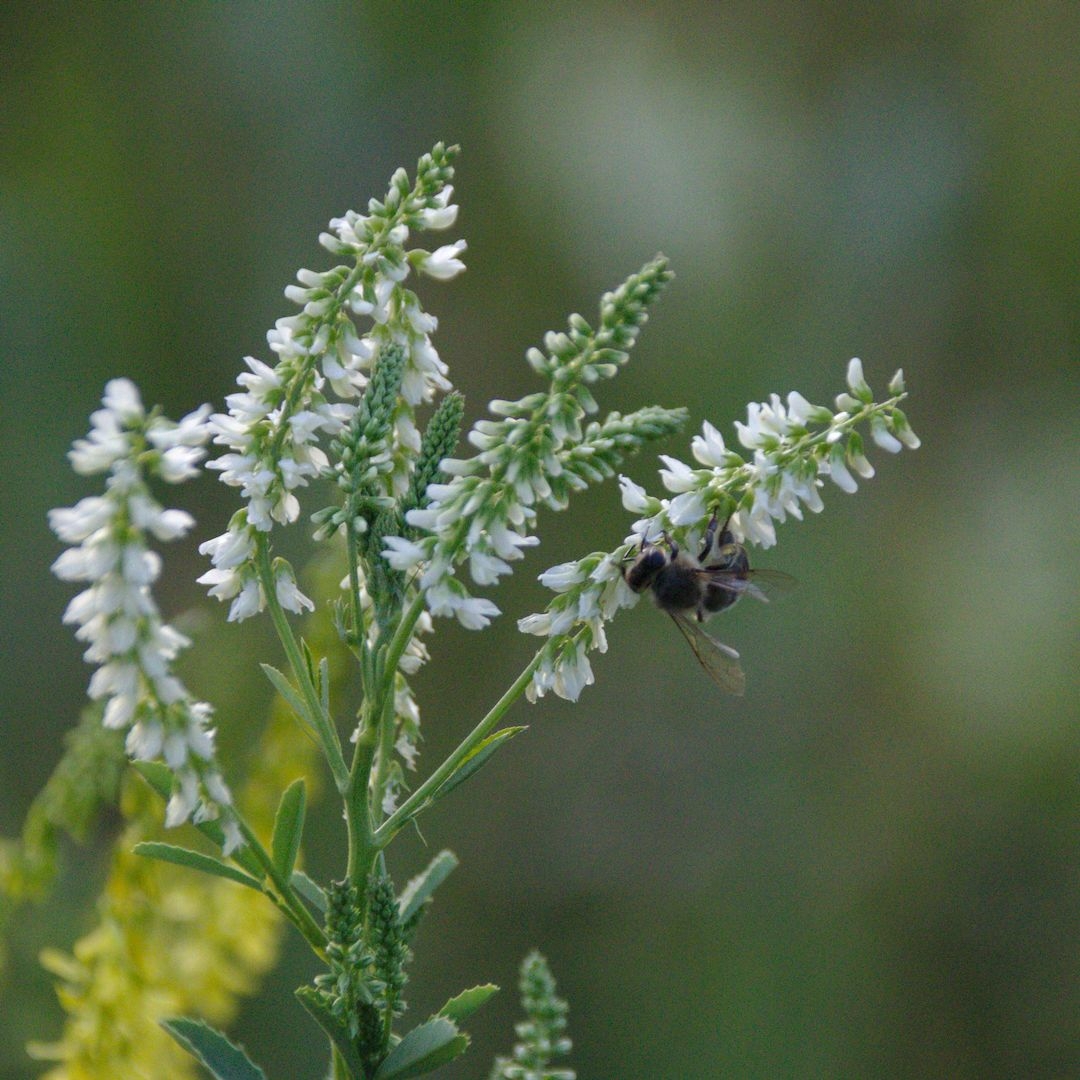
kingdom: Plantae
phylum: Tracheophyta
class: Magnoliopsida
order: Fabales
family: Fabaceae
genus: Melilotus
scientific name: Melilotus albus
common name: White melilot
